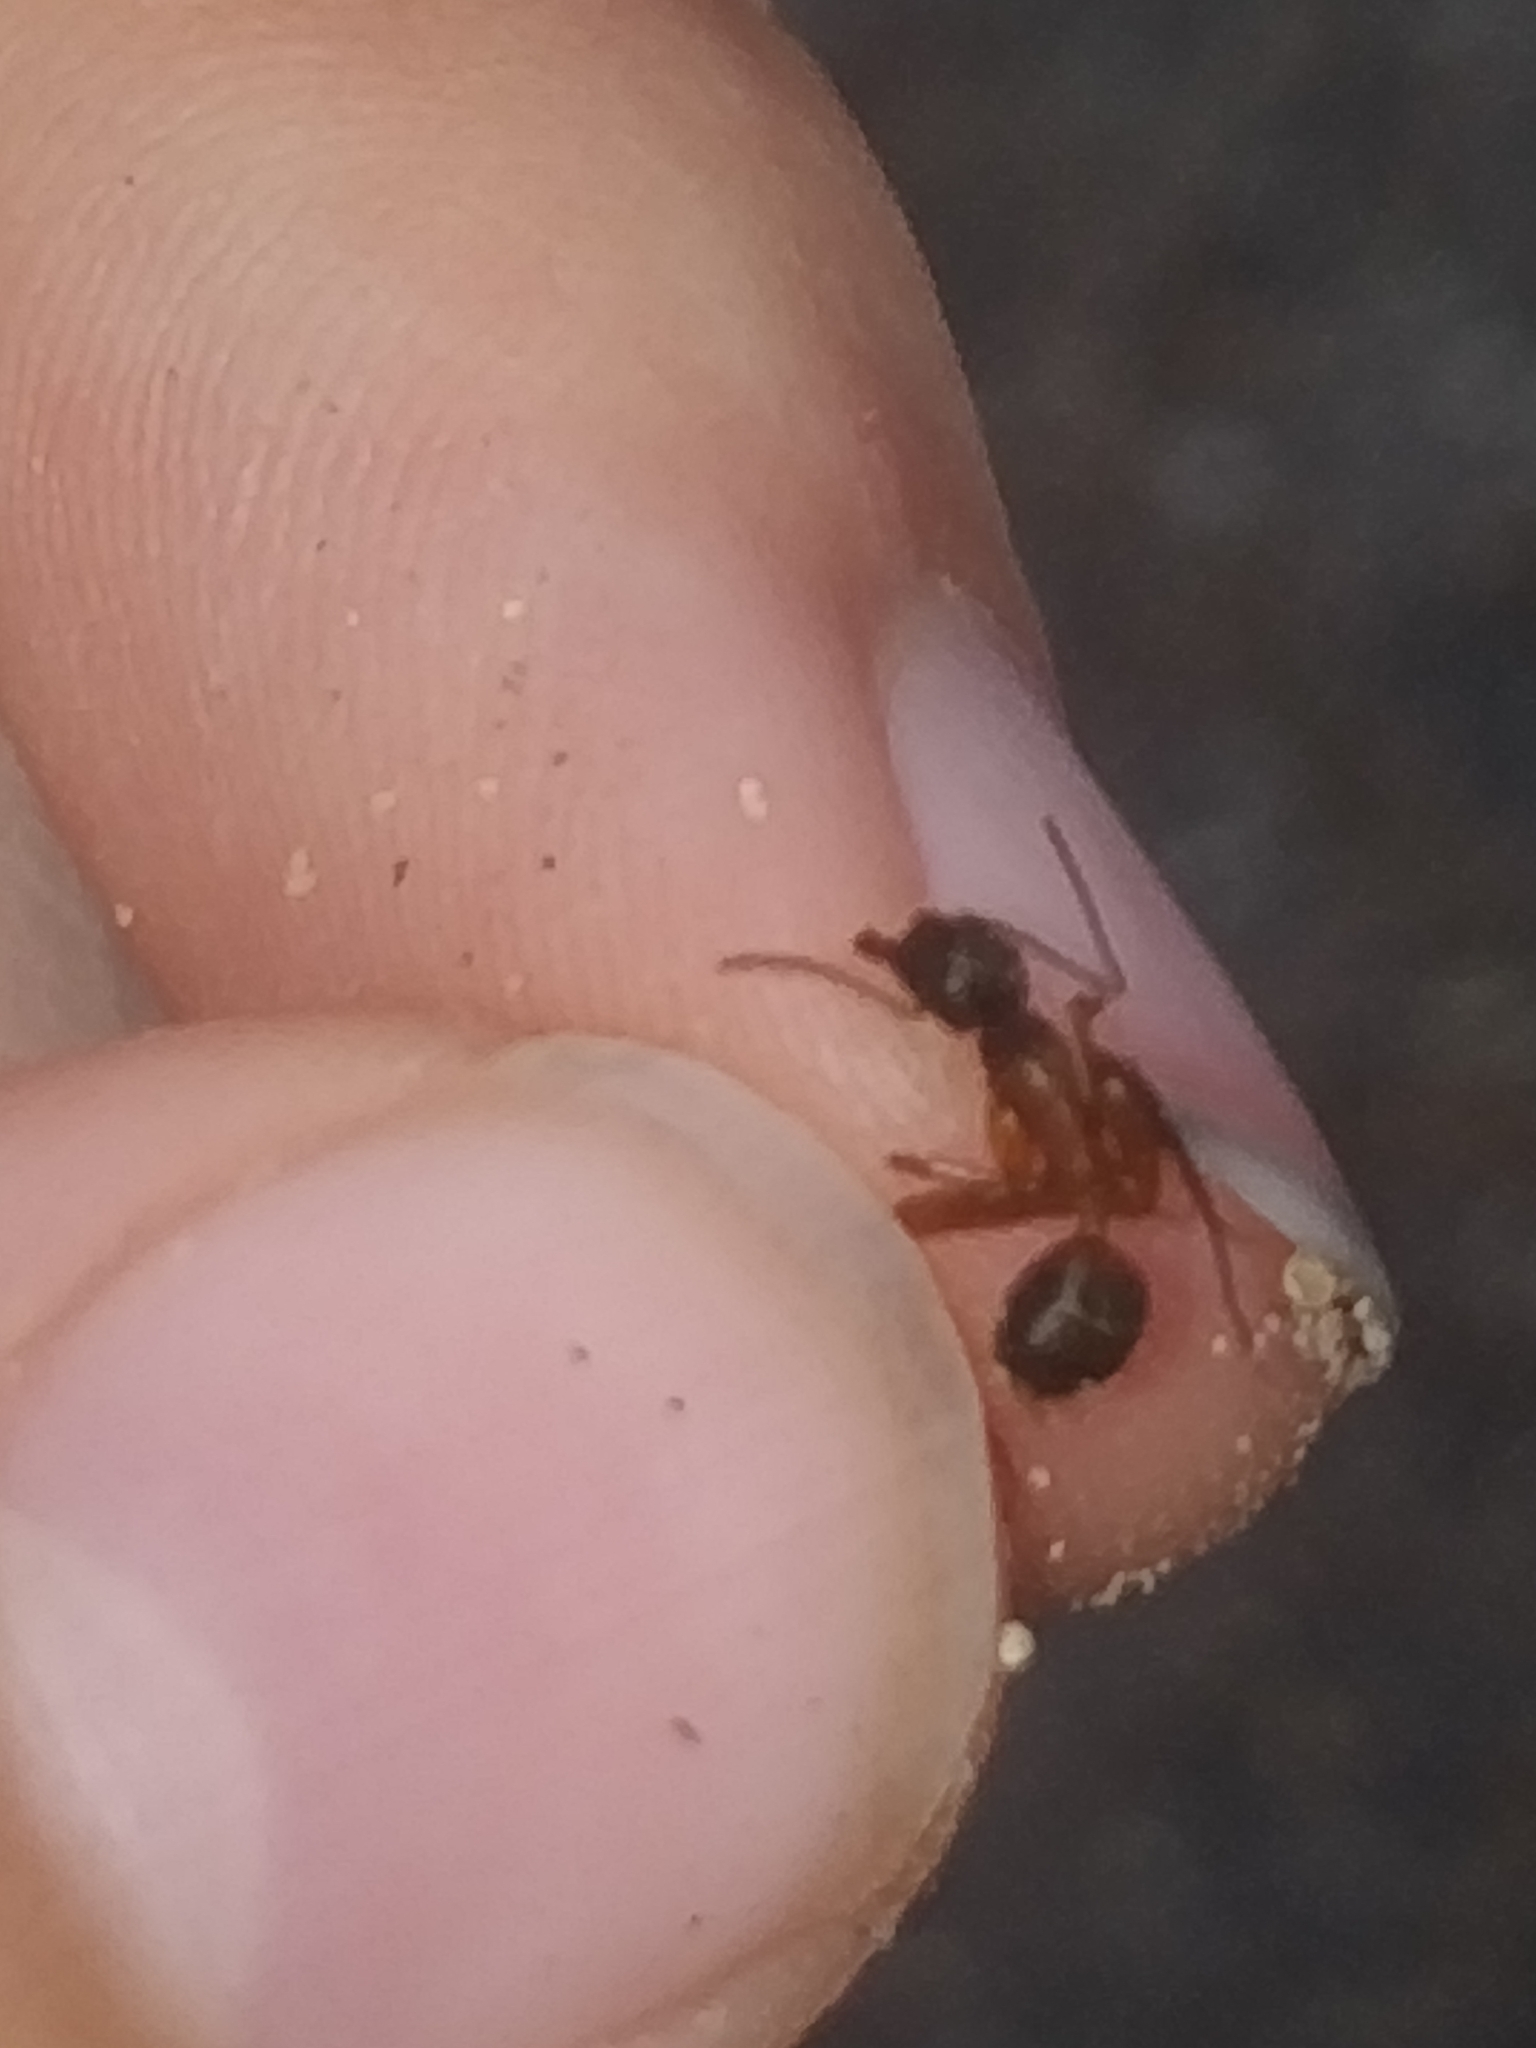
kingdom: Animalia
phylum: Arthropoda
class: Insecta
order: Hymenoptera
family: Formicidae
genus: Camponotus
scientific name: Camponotus chromaiodes
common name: Red carpenter ant
